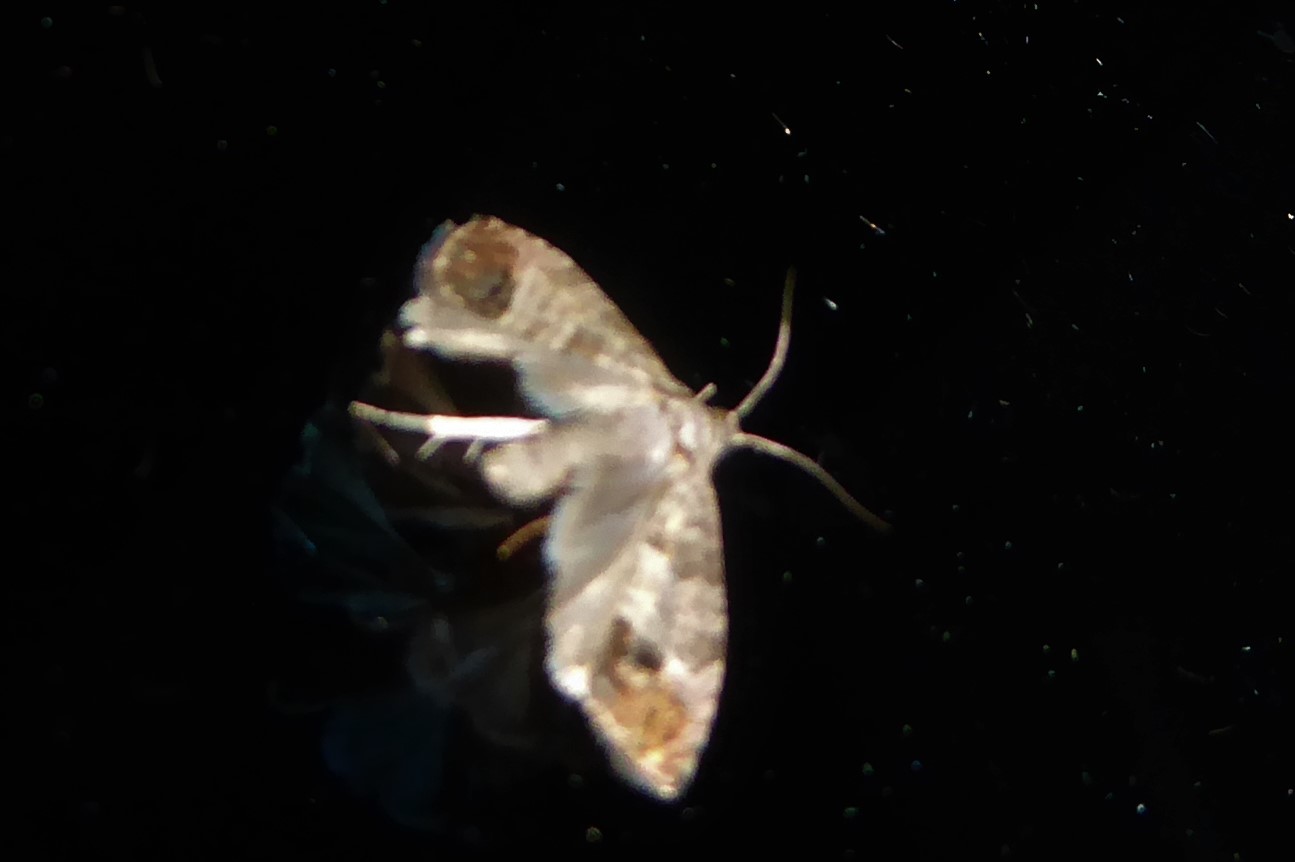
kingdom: Animalia
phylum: Arthropoda
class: Insecta
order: Lepidoptera
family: Tortricidae
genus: Cydia
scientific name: Cydia pomonella
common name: Codling moth
